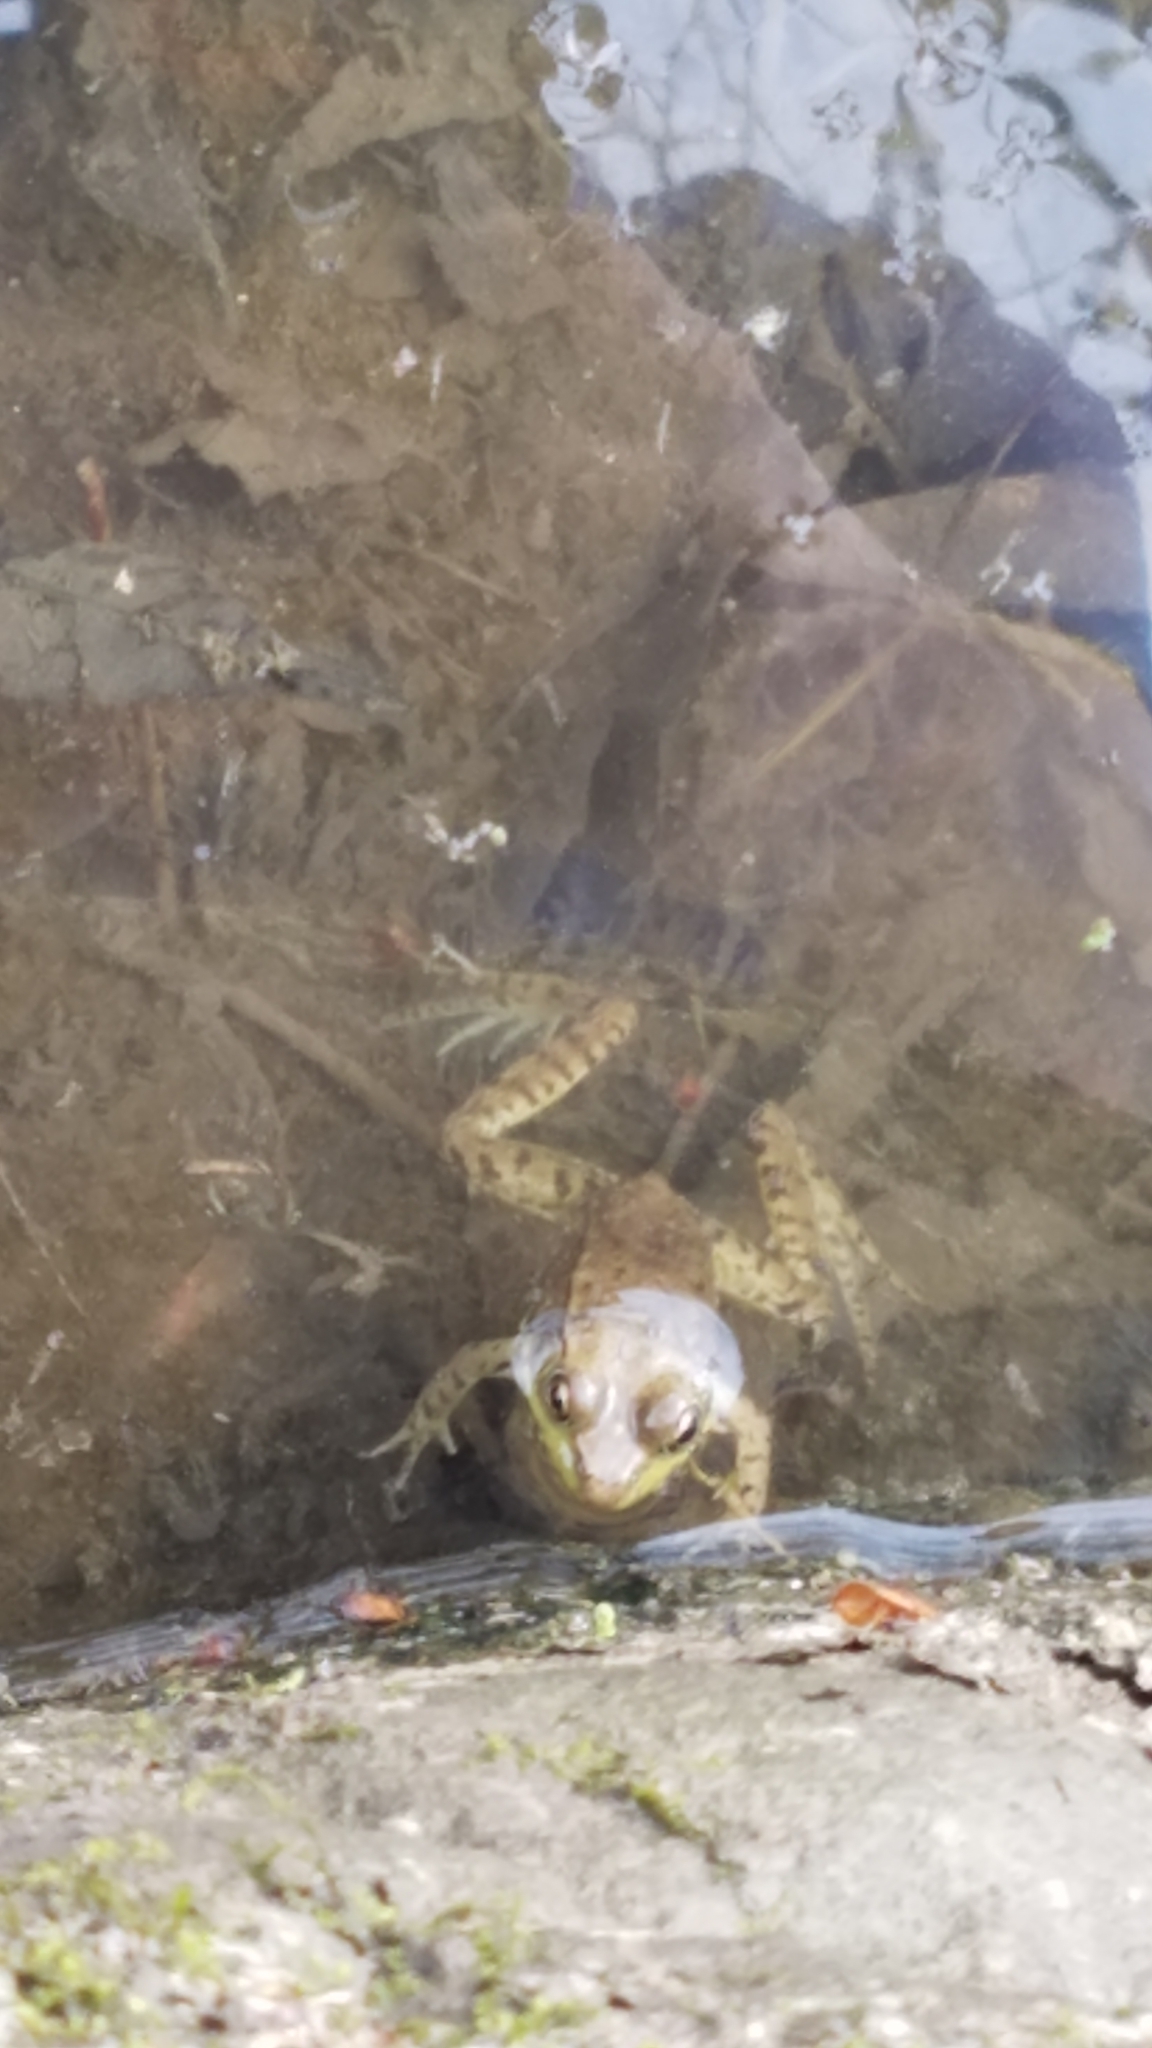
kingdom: Animalia
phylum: Chordata
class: Amphibia
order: Anura
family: Ranidae
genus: Lithobates
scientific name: Lithobates clamitans
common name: Green frog
